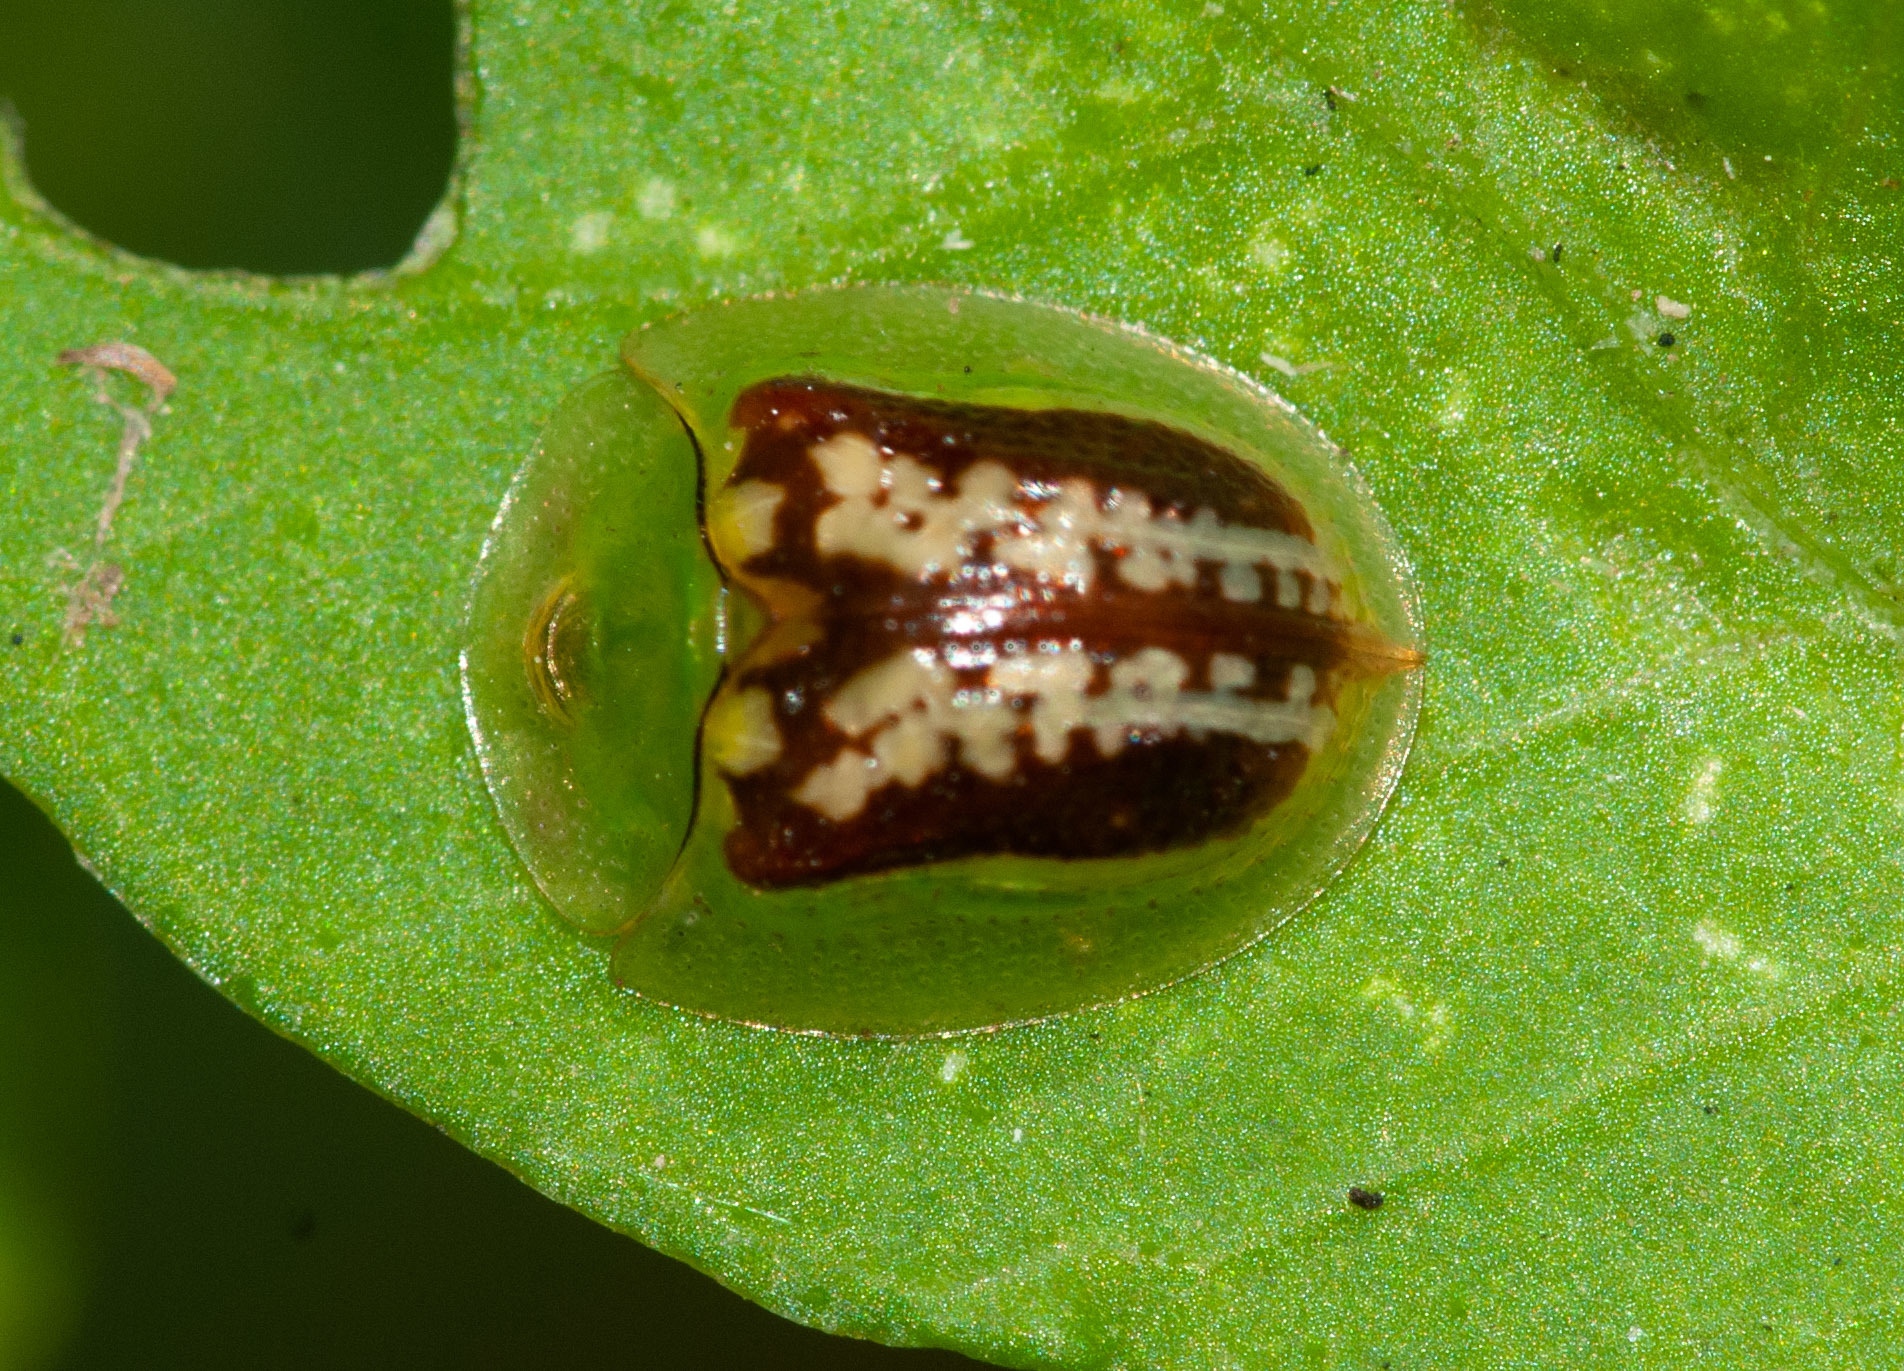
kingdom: Animalia
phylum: Arthropoda
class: Insecta
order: Coleoptera
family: Chrysomelidae
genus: Cassida
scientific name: Cassida compuncta
